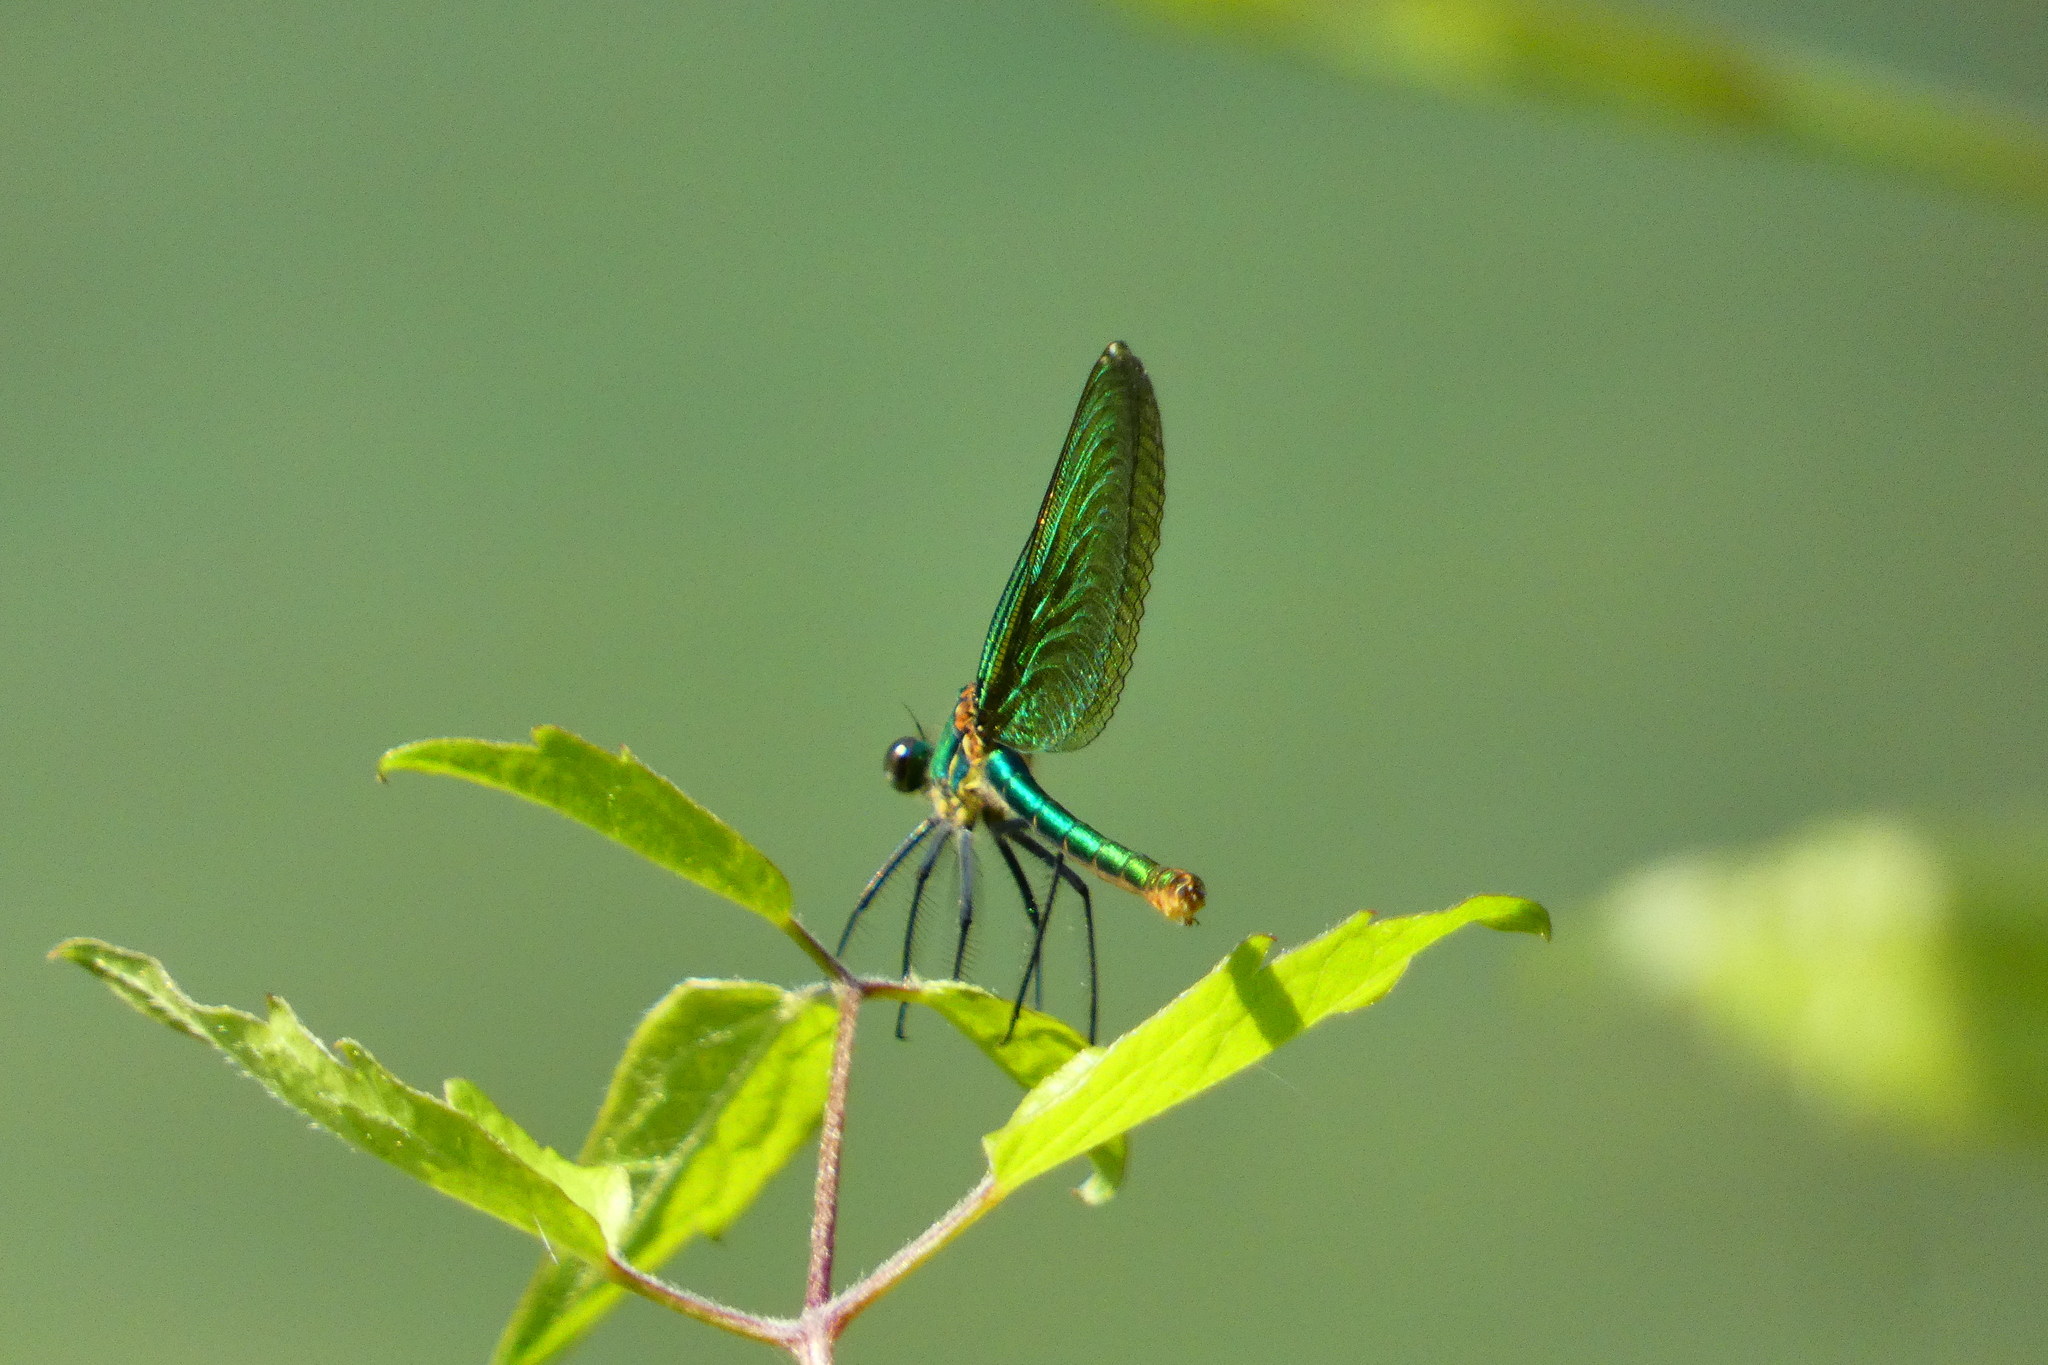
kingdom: Animalia
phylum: Arthropoda
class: Insecta
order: Odonata
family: Calopterygidae
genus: Calopteryx
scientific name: Calopteryx splendens
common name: Banded demoiselle
